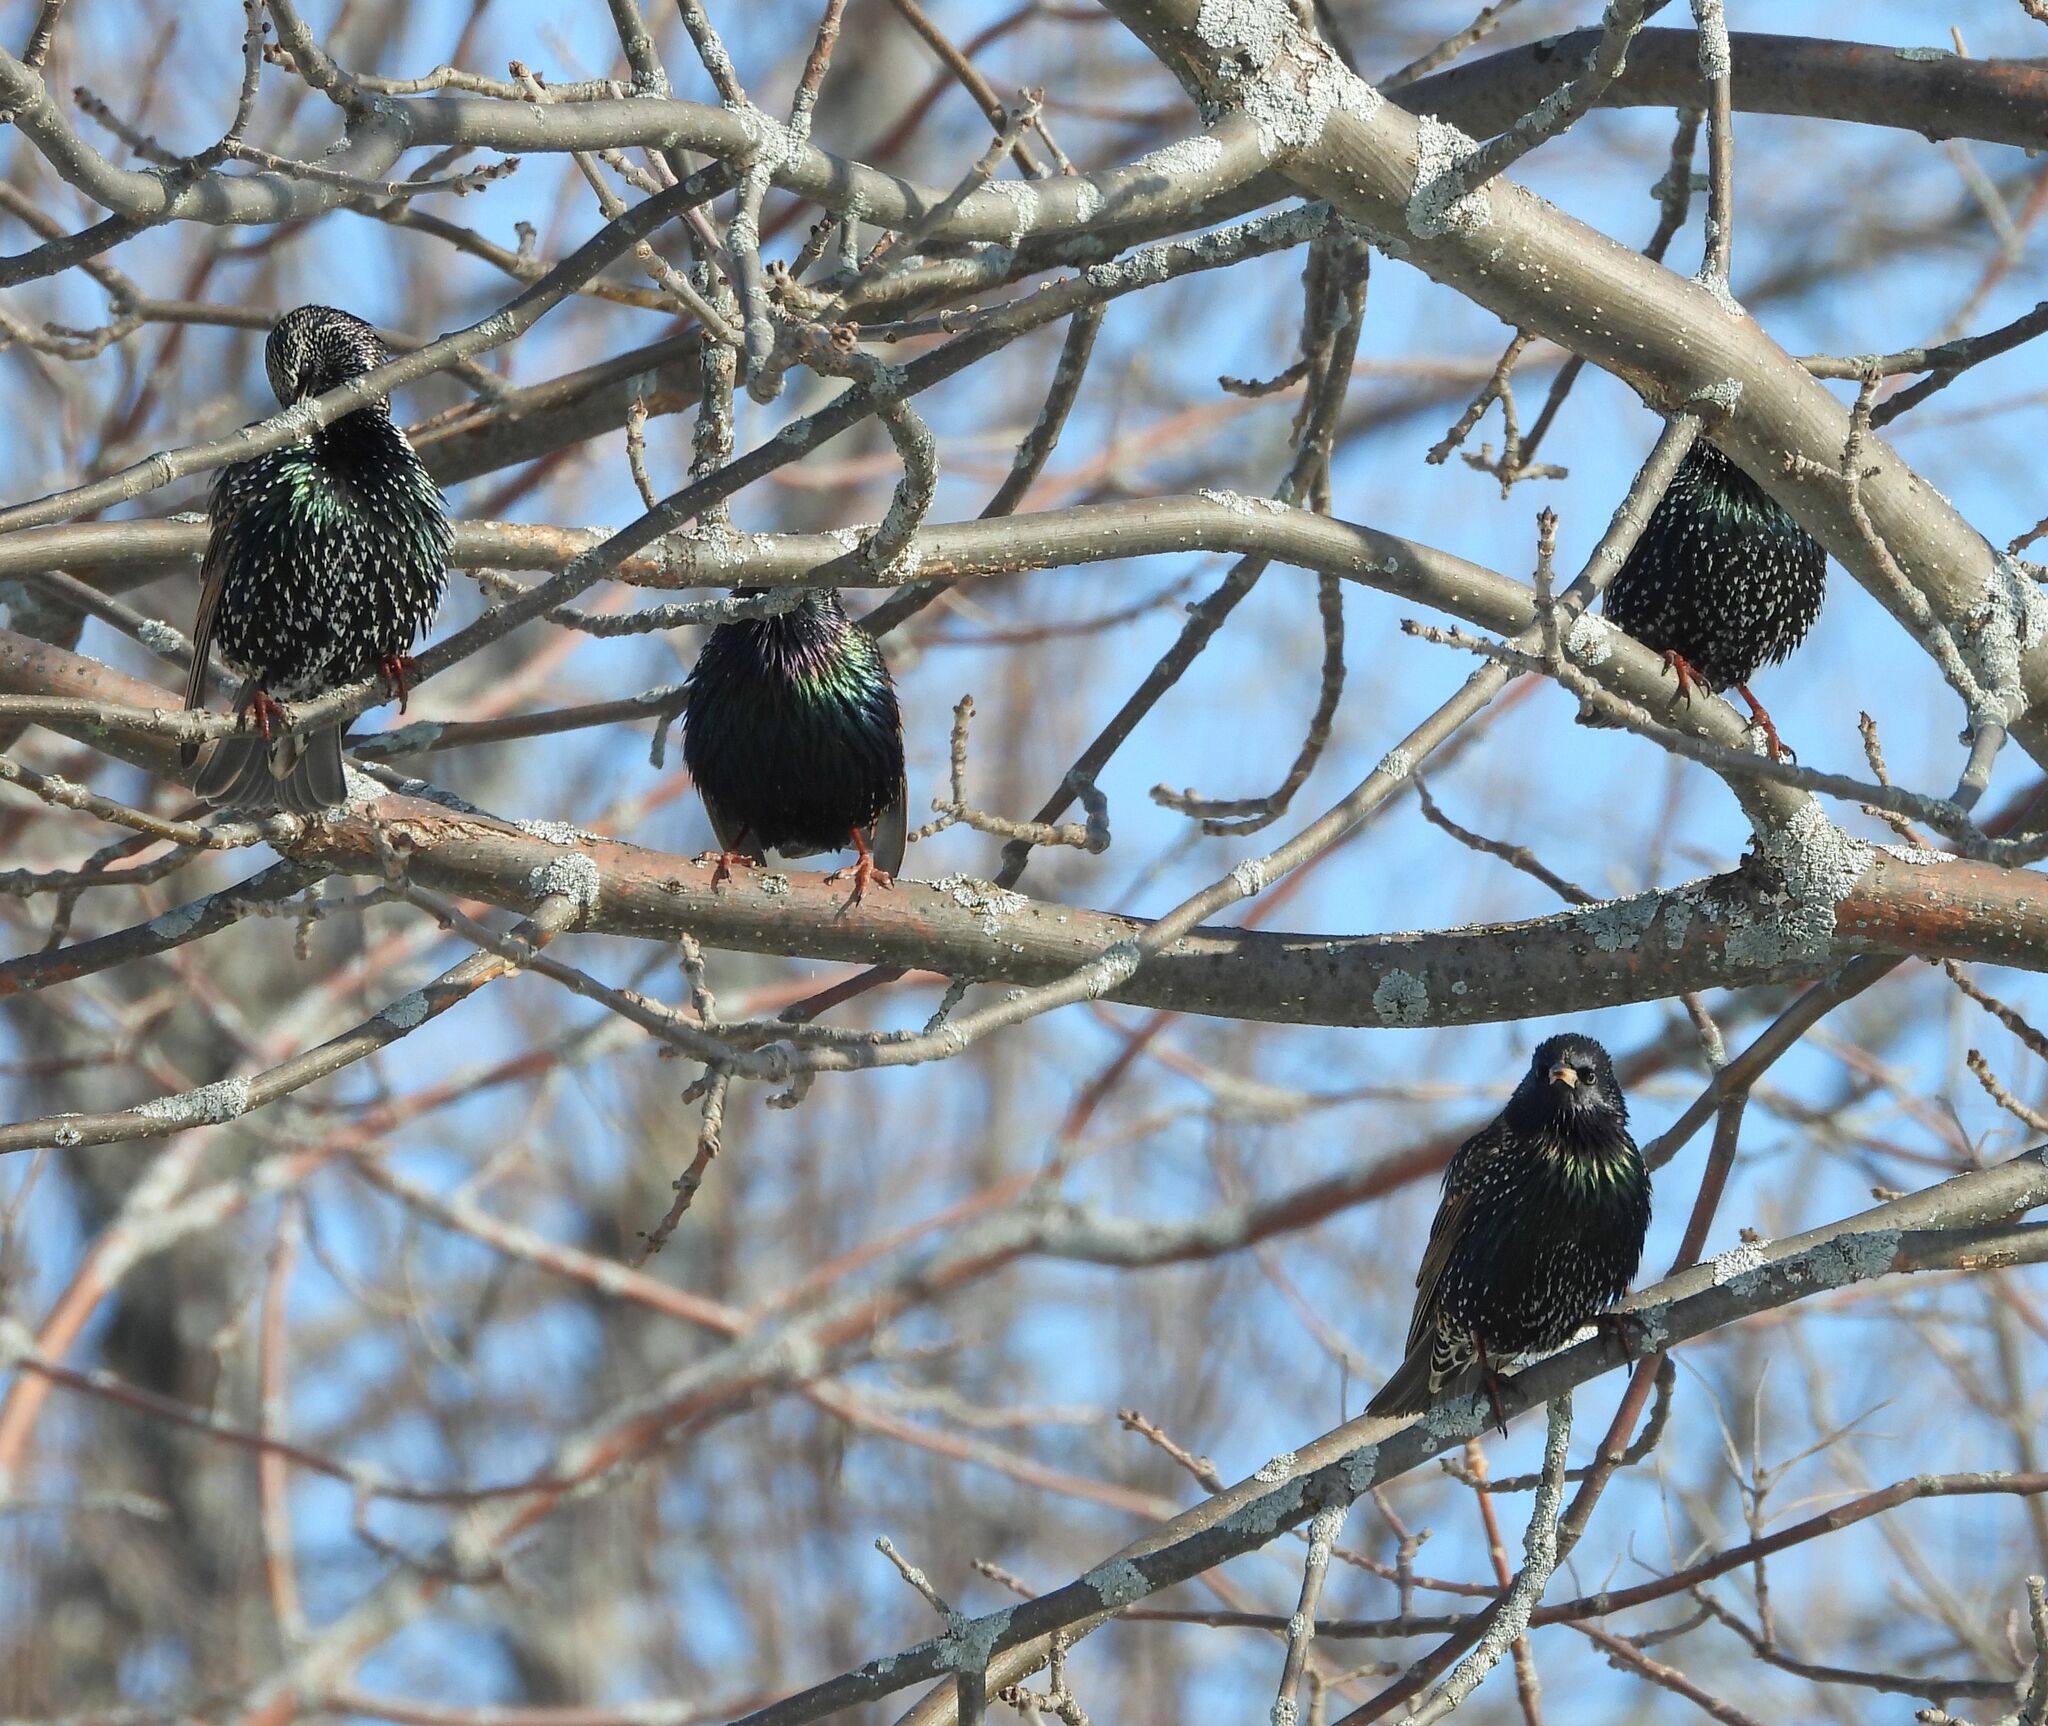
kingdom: Animalia
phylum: Chordata
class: Aves
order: Passeriformes
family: Sturnidae
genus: Sturnus
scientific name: Sturnus vulgaris
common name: Common starling
